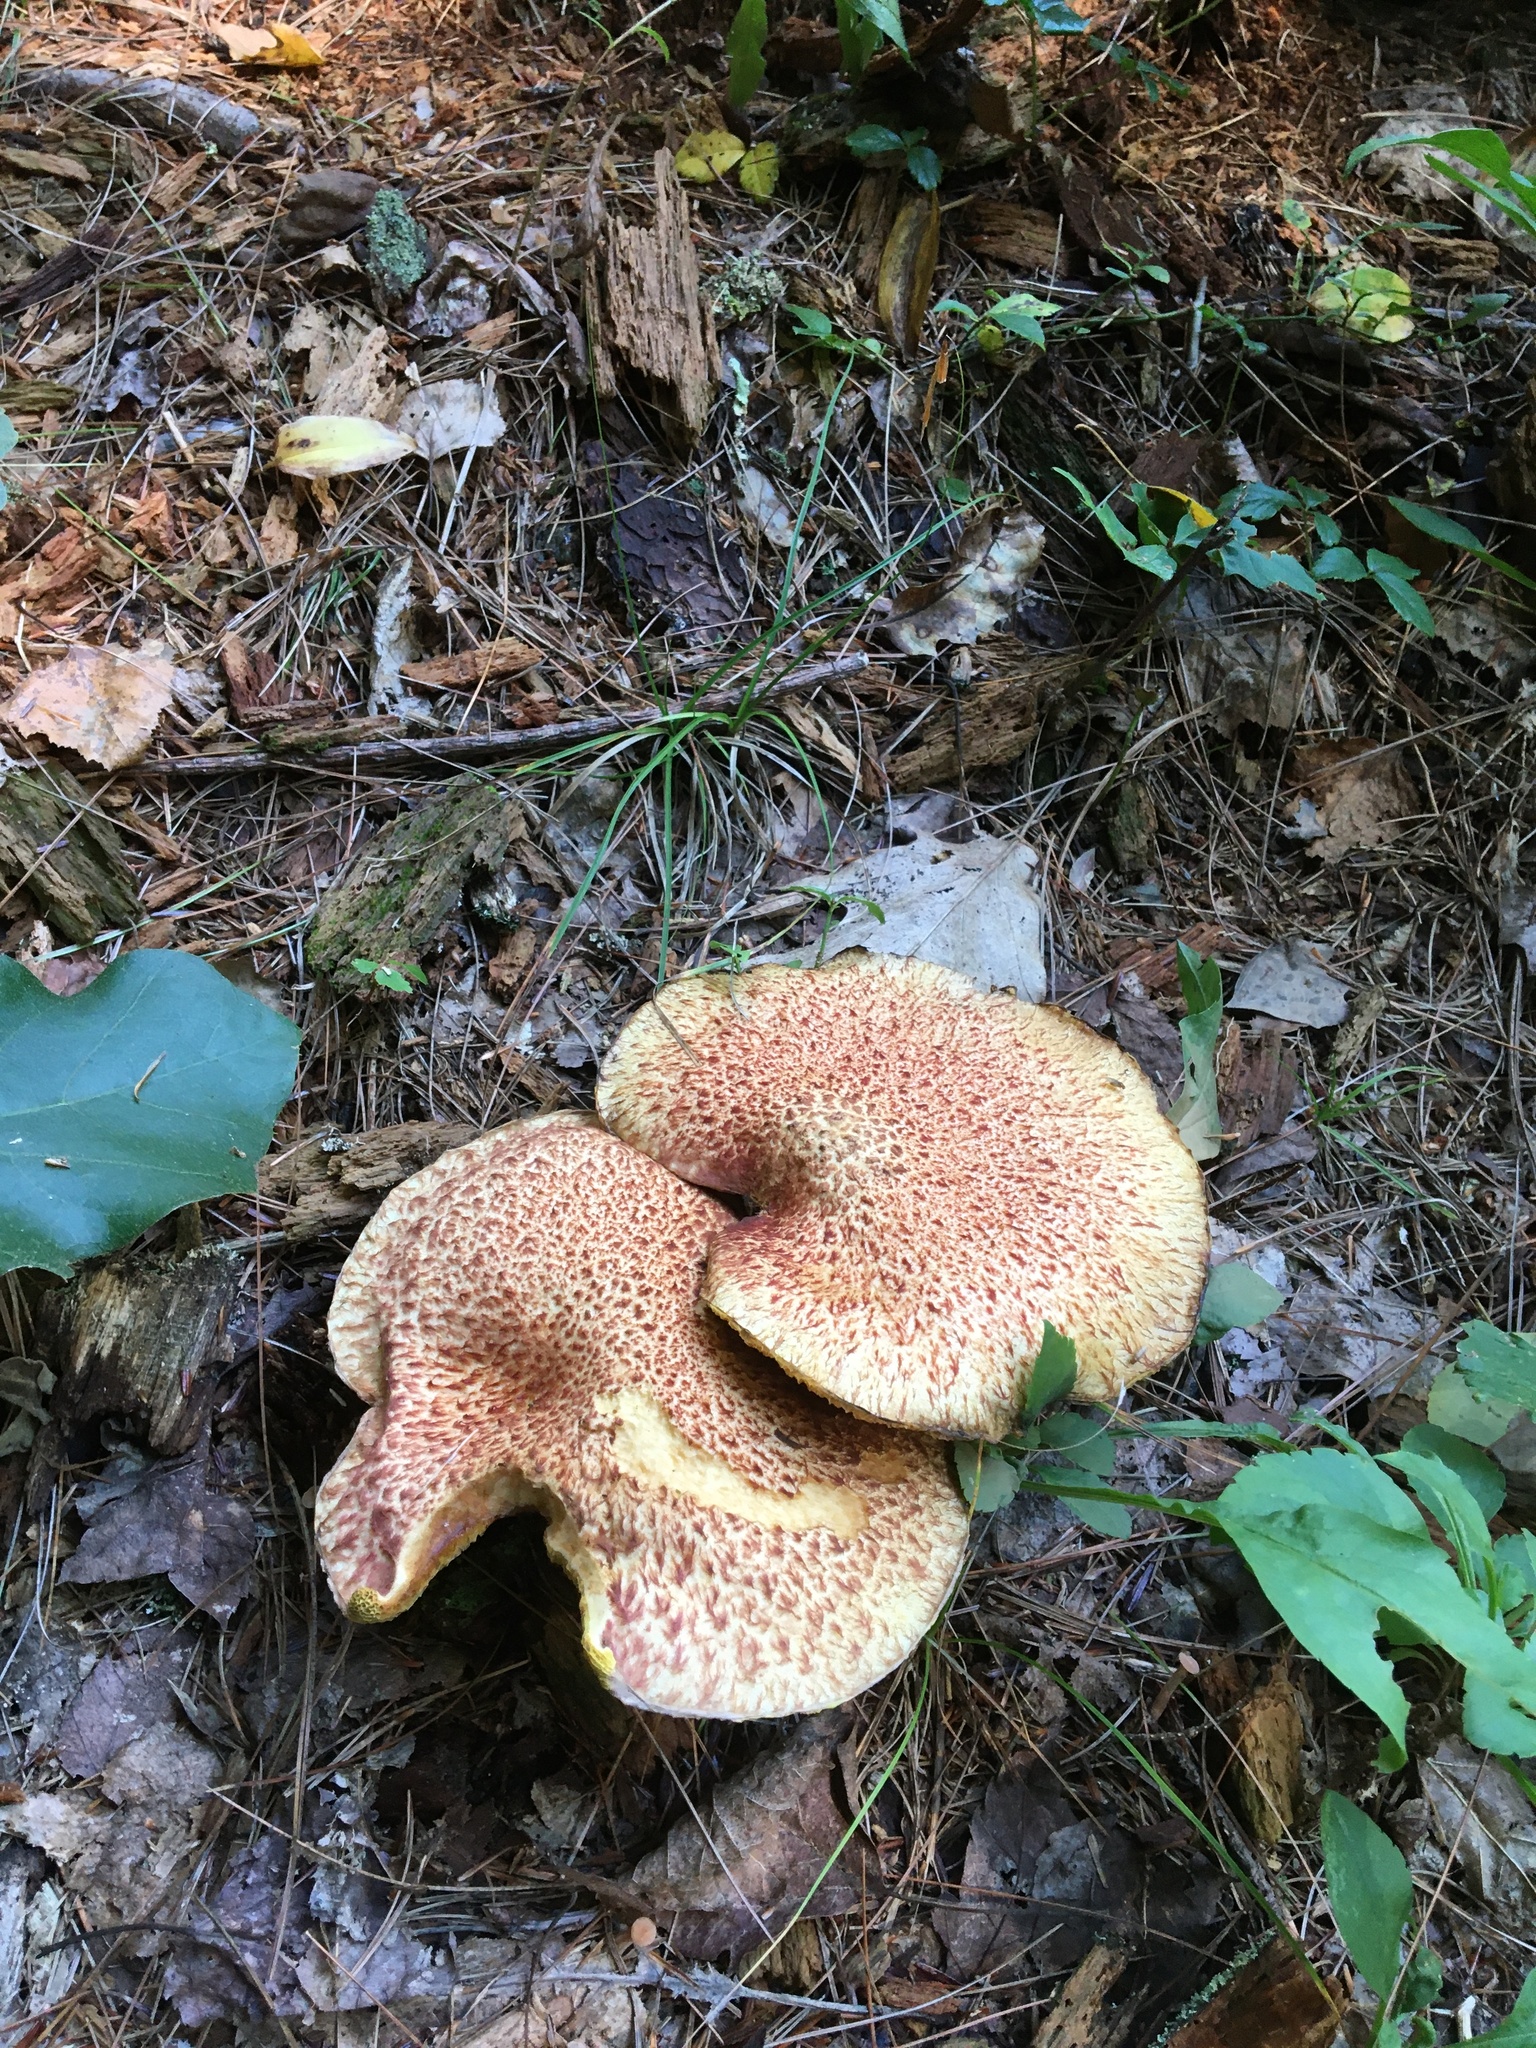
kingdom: Fungi
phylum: Basidiomycota
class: Agaricomycetes
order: Boletales
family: Suillaceae
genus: Suillus
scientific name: Suillus spraguei
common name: Painted suillus
